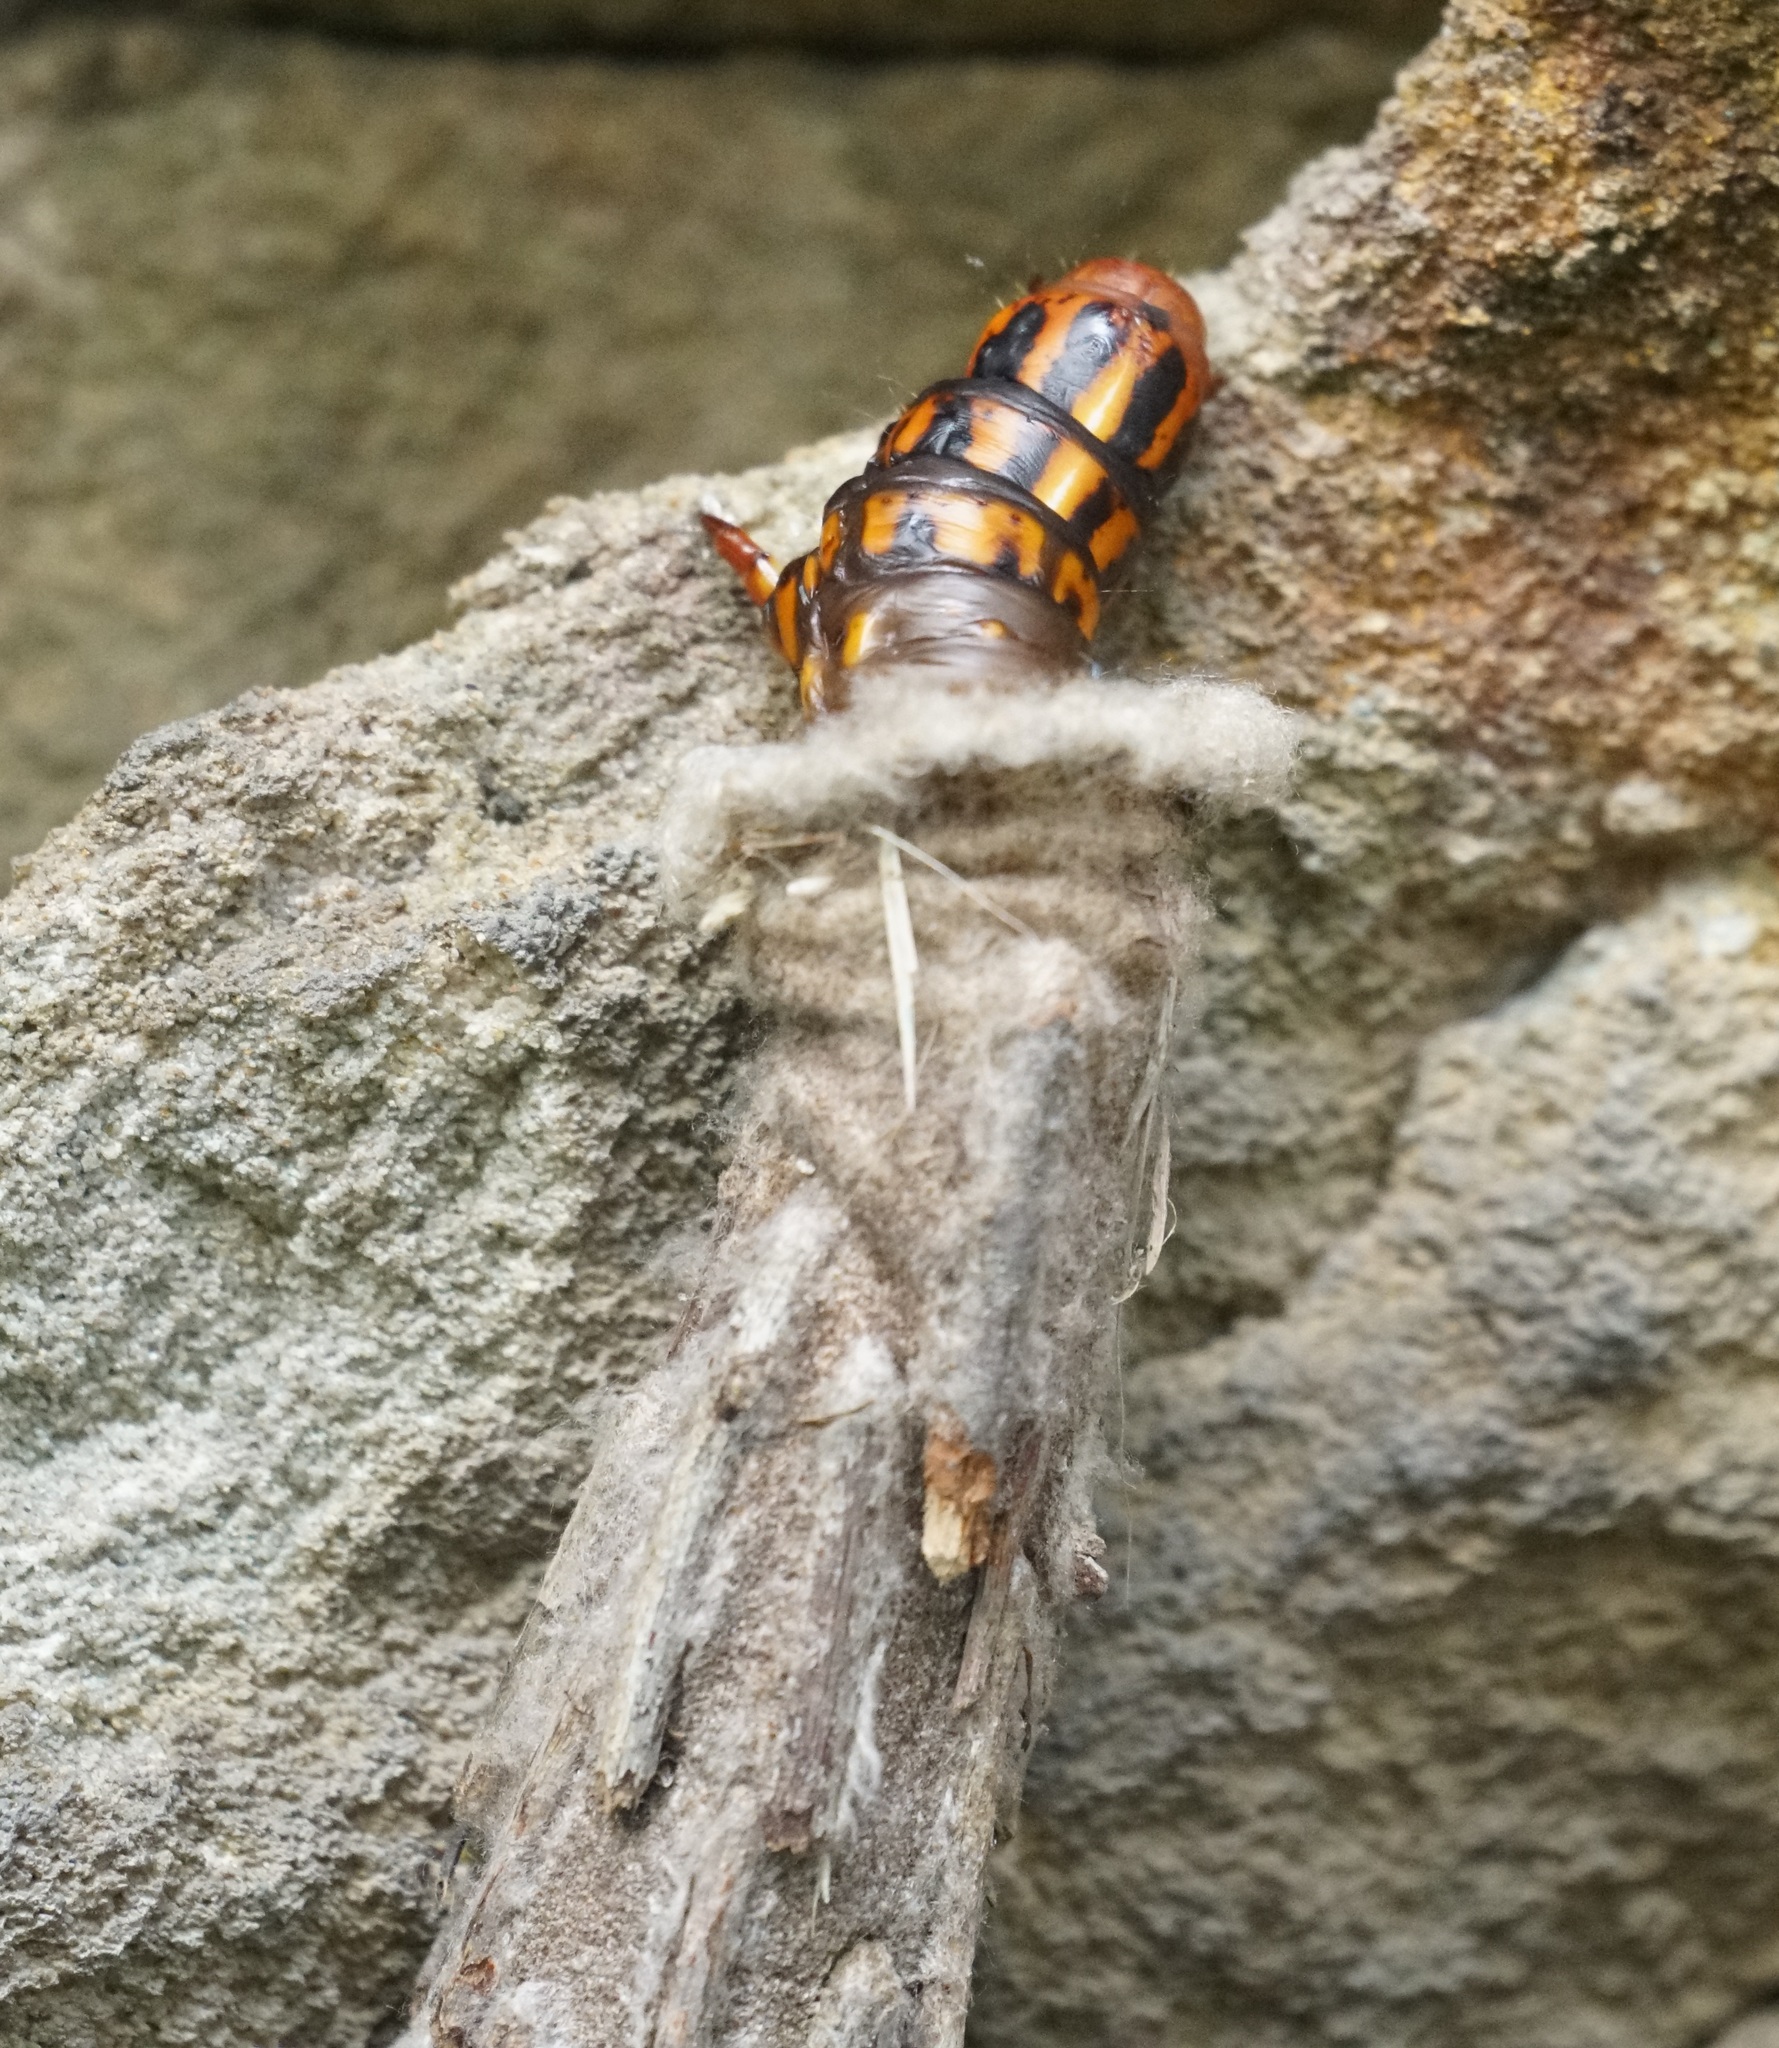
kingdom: Animalia
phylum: Arthropoda
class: Insecta
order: Lepidoptera
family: Psychidae
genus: Metura
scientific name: Metura elongatus
